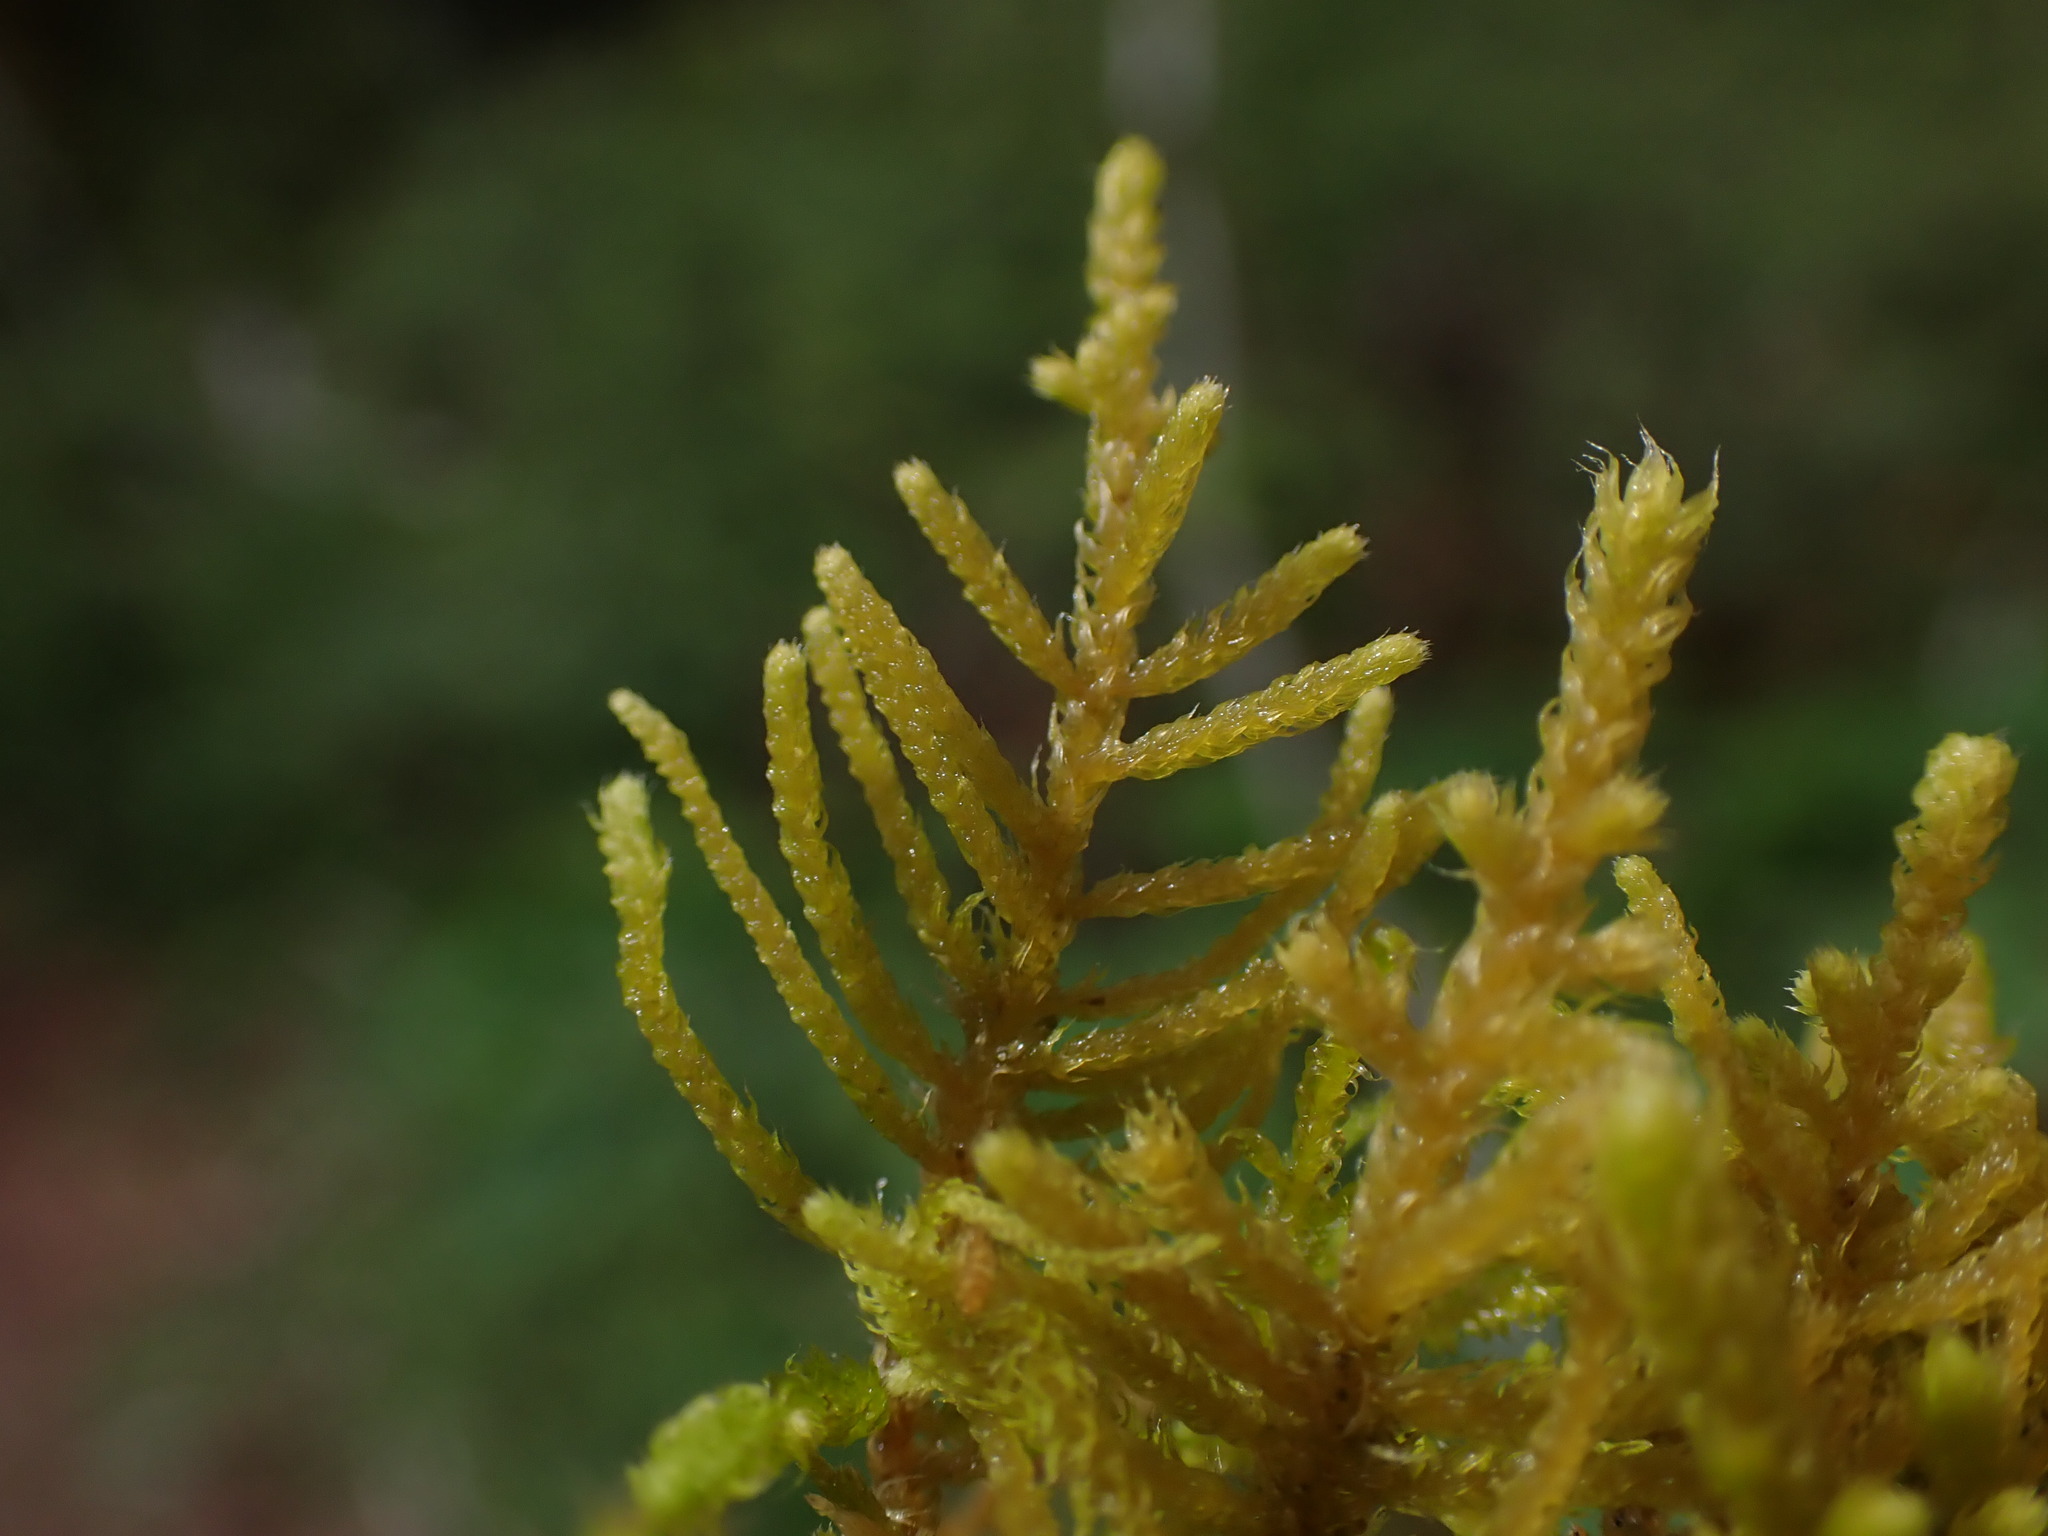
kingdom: Plantae
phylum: Bryophyta
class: Bryopsida
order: Hypnales
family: Brachytheciaceae
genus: Claopodium
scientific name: Claopodium crispifolium
